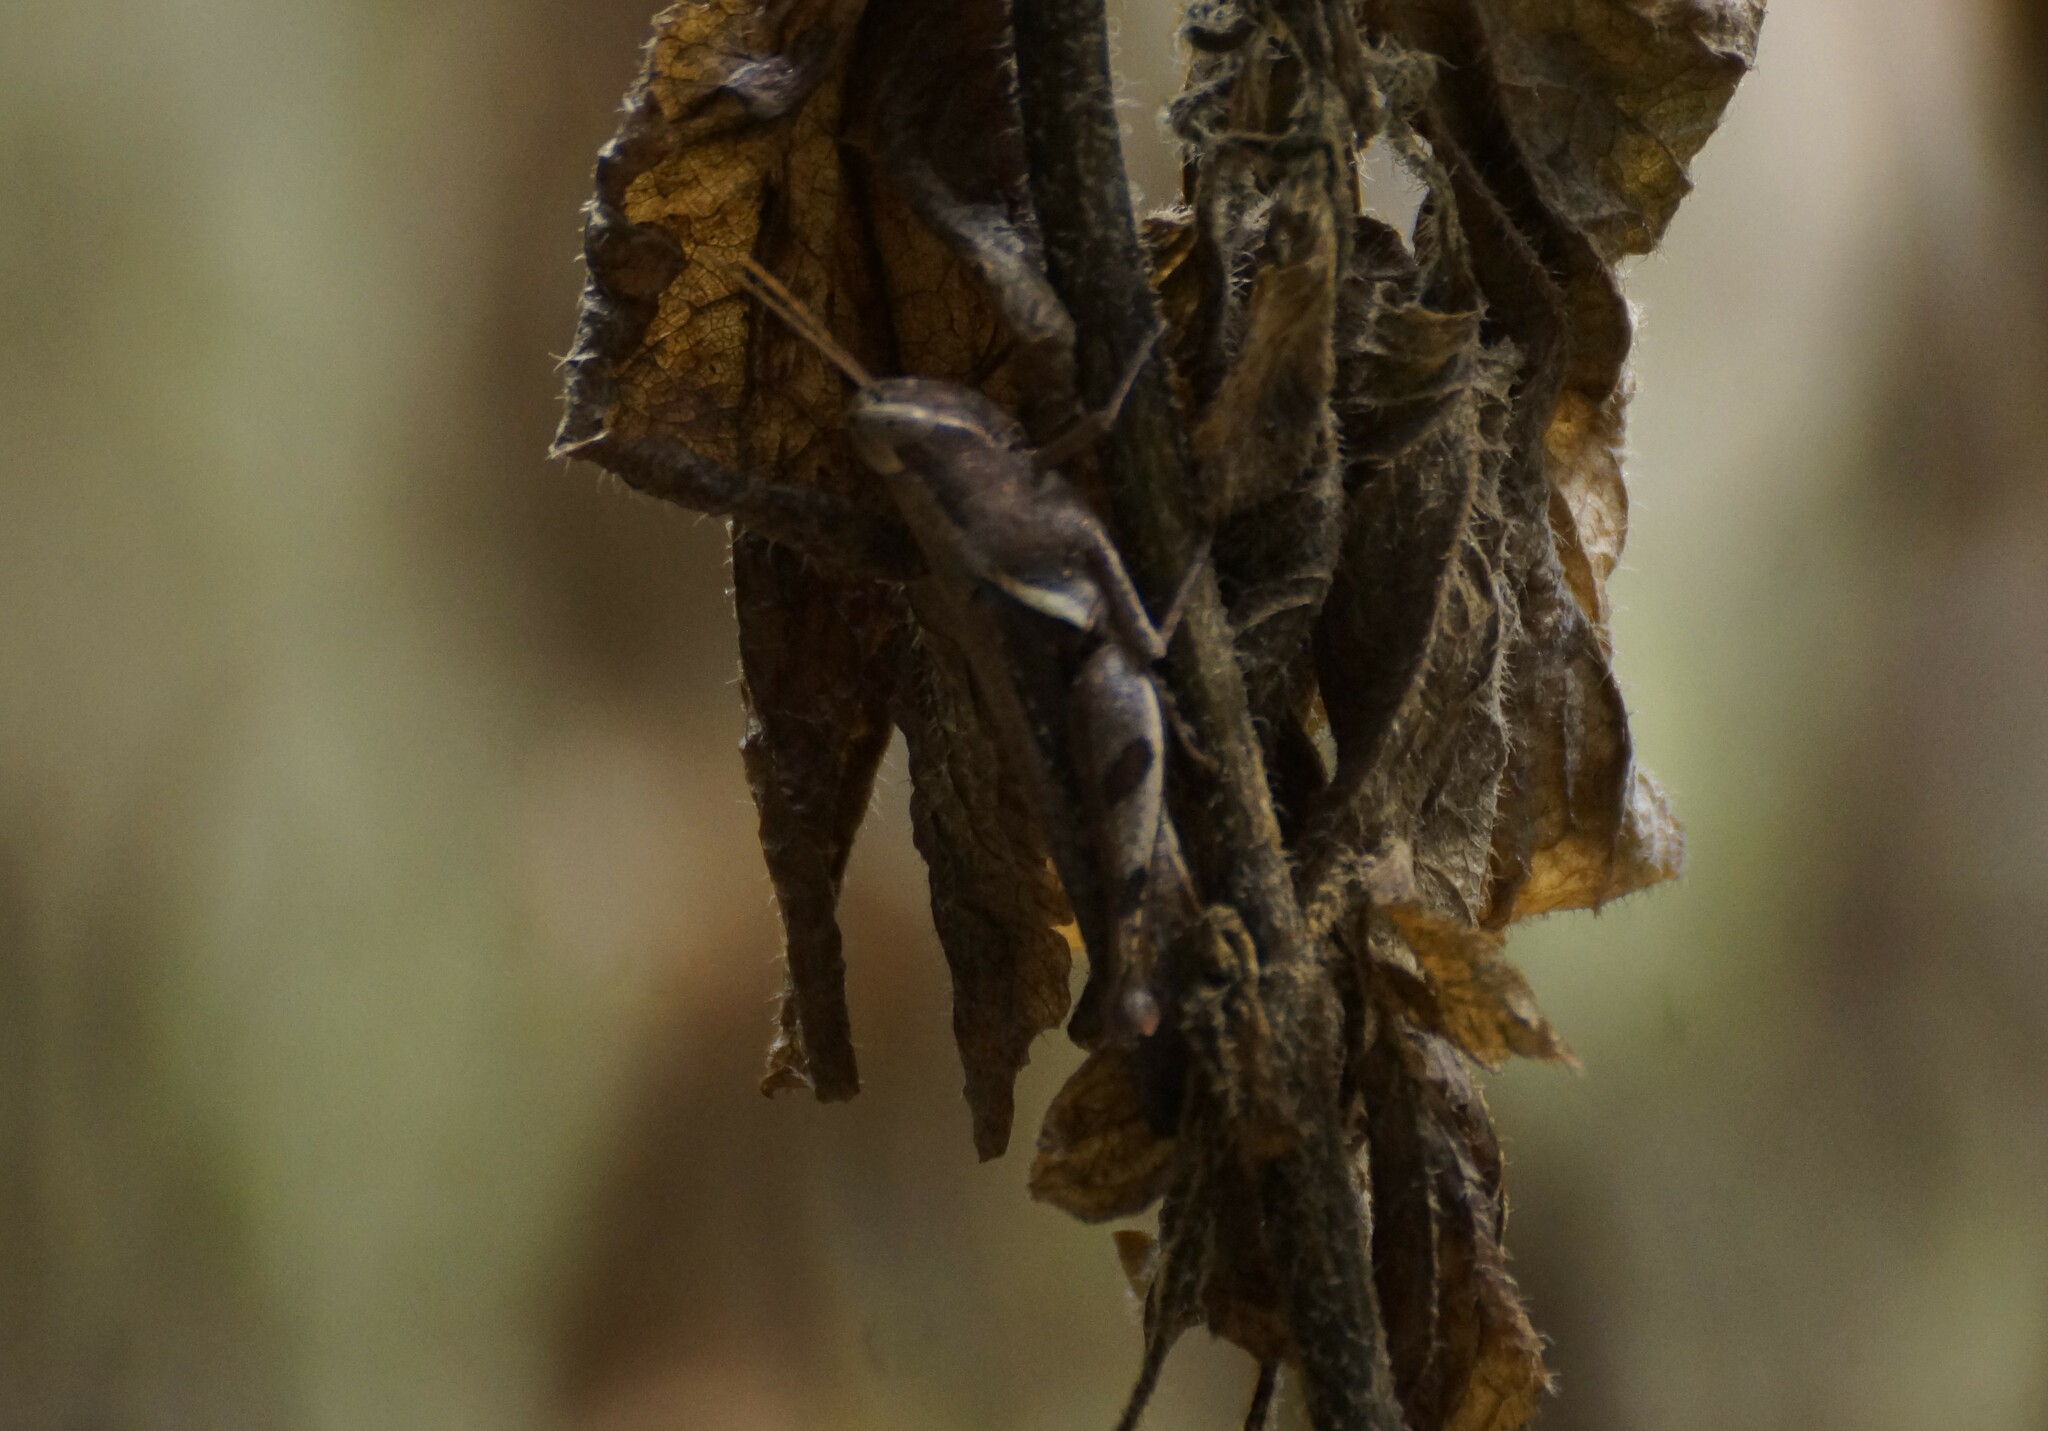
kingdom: Animalia
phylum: Arthropoda
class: Insecta
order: Orthoptera
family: Acrididae
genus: Stenocatantops
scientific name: Stenocatantops angustifrons
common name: Common tropical sharptail
